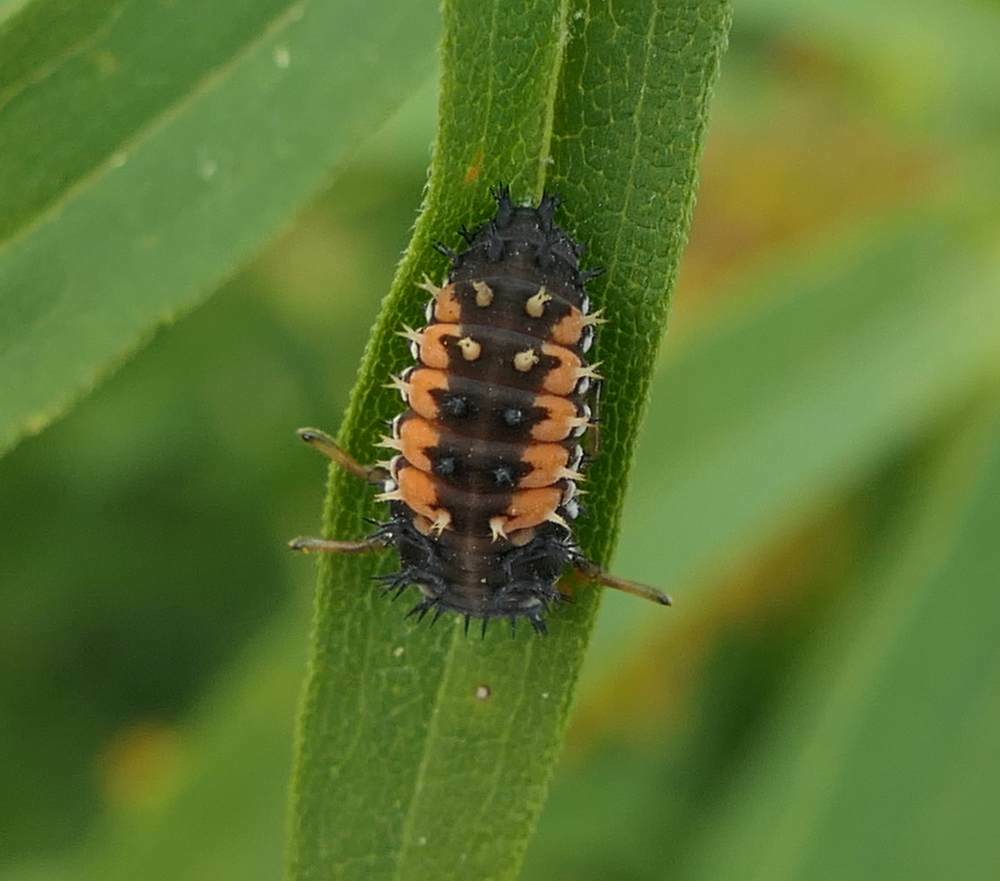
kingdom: Animalia
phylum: Arthropoda
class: Insecta
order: Coleoptera
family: Coccinellidae
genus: Harmonia
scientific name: Harmonia axyridis
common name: Harlequin ladybird
